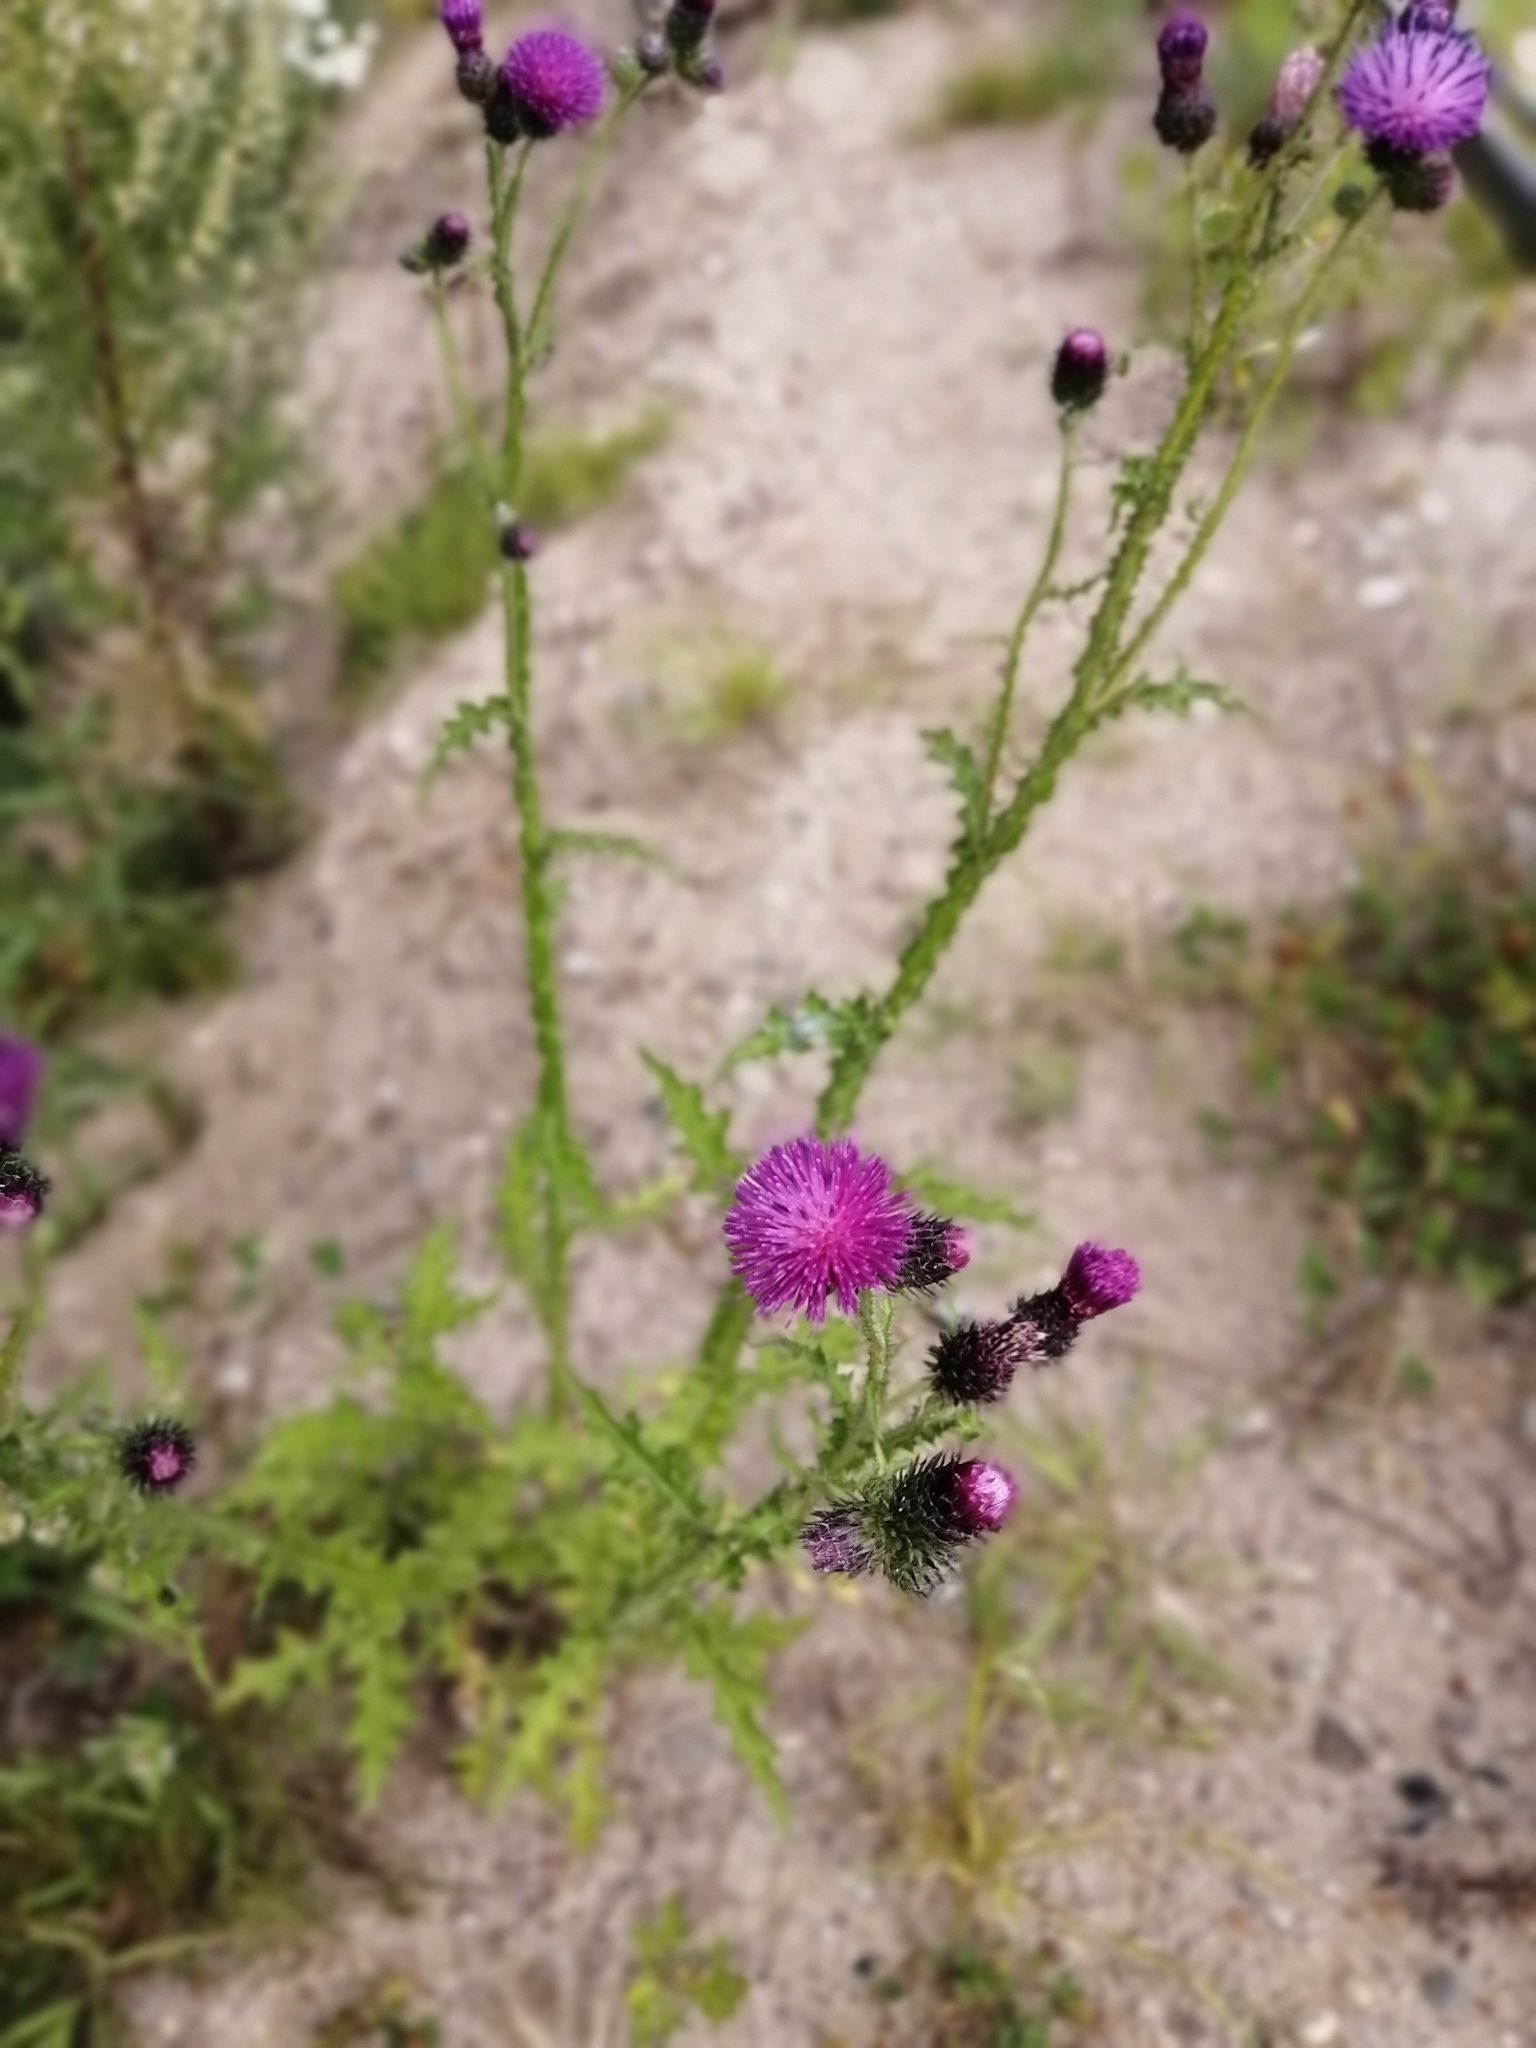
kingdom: Plantae
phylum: Tracheophyta
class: Magnoliopsida
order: Asterales
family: Asteraceae
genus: Carduus
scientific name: Carduus crispus
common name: Welted thistle
